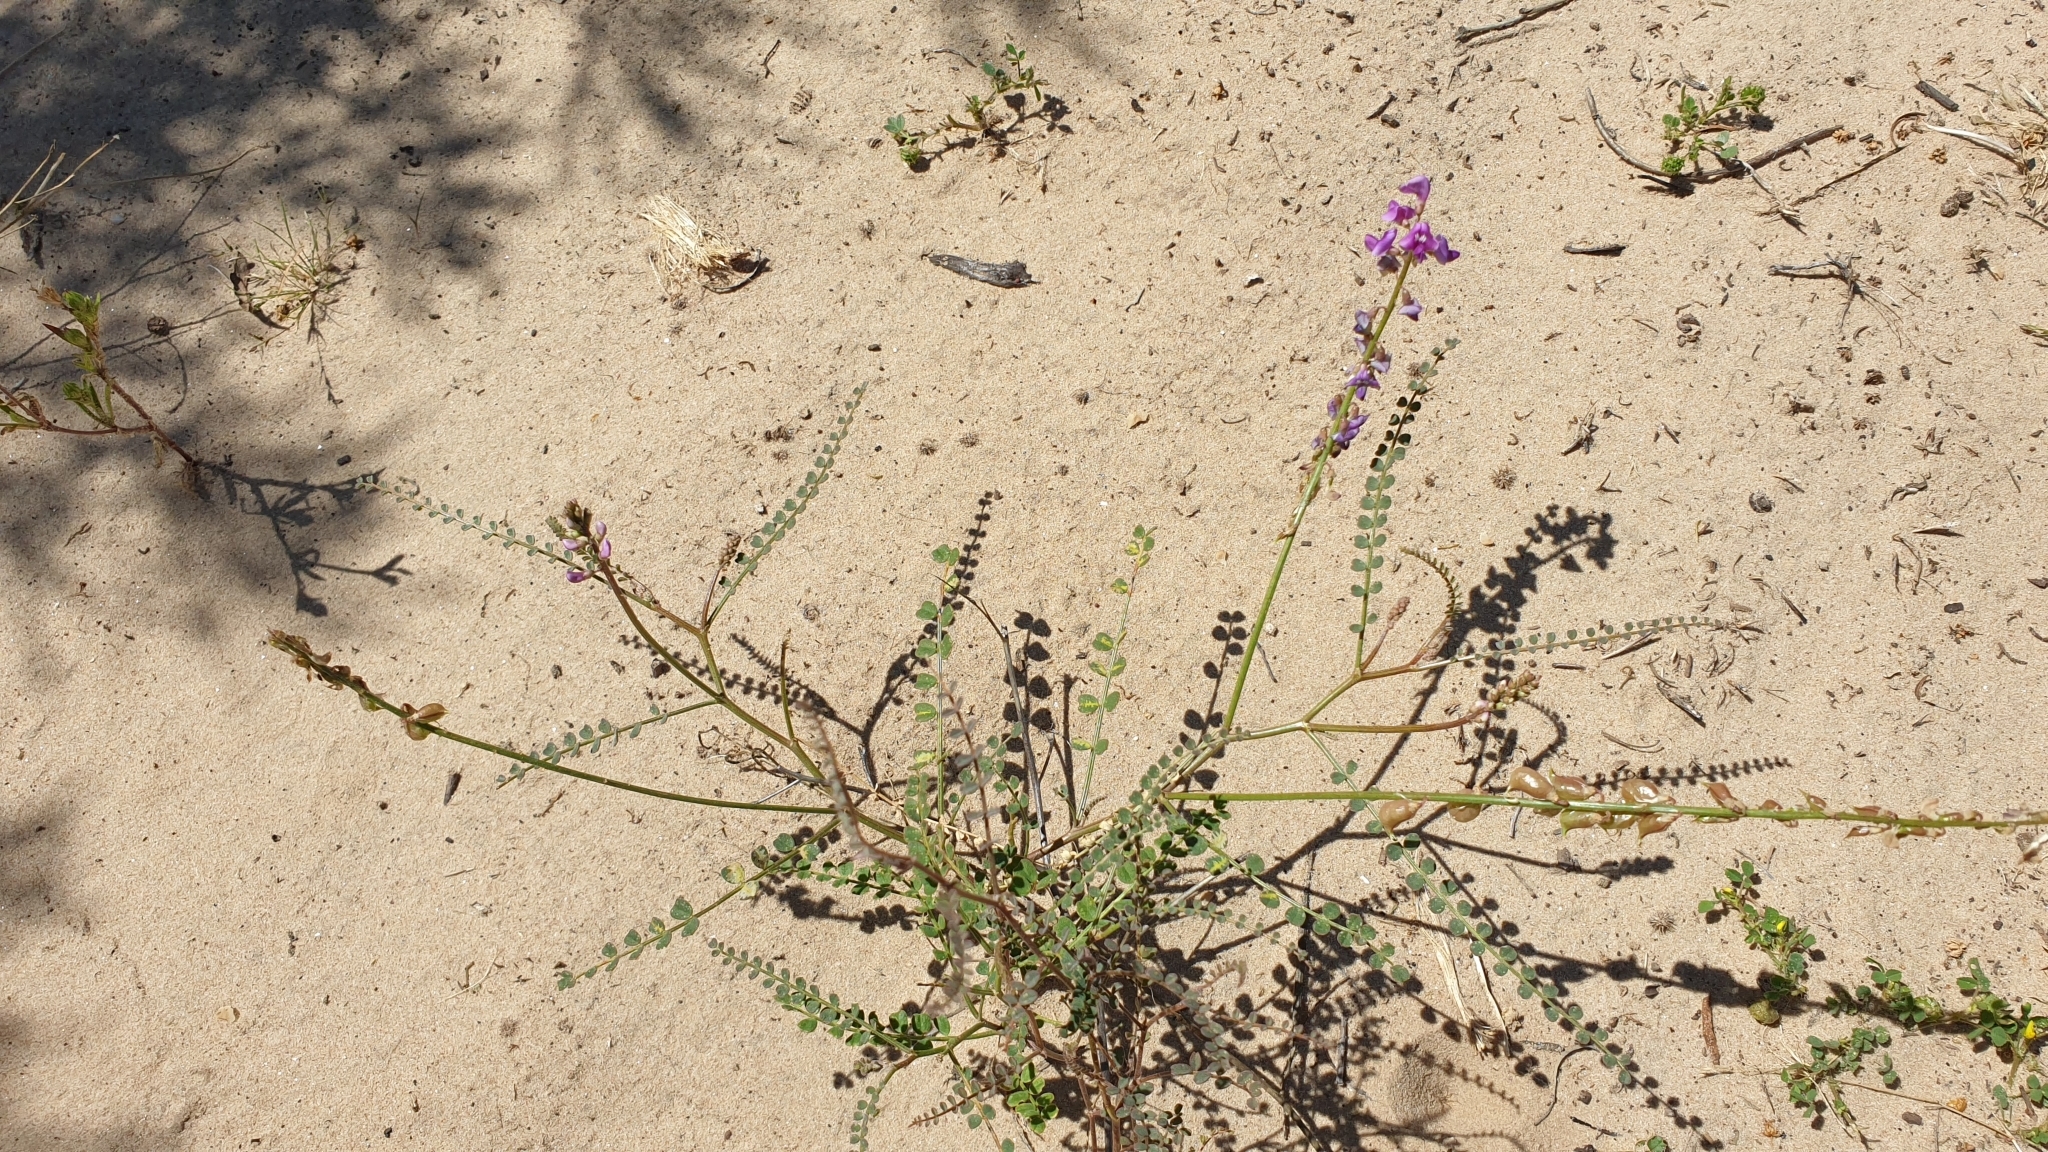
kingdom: Plantae
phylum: Tracheophyta
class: Magnoliopsida
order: Fabales
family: Fabaceae
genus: Swainsona
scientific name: Swainsona microphylla
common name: Small-leaf swainsona-pea
